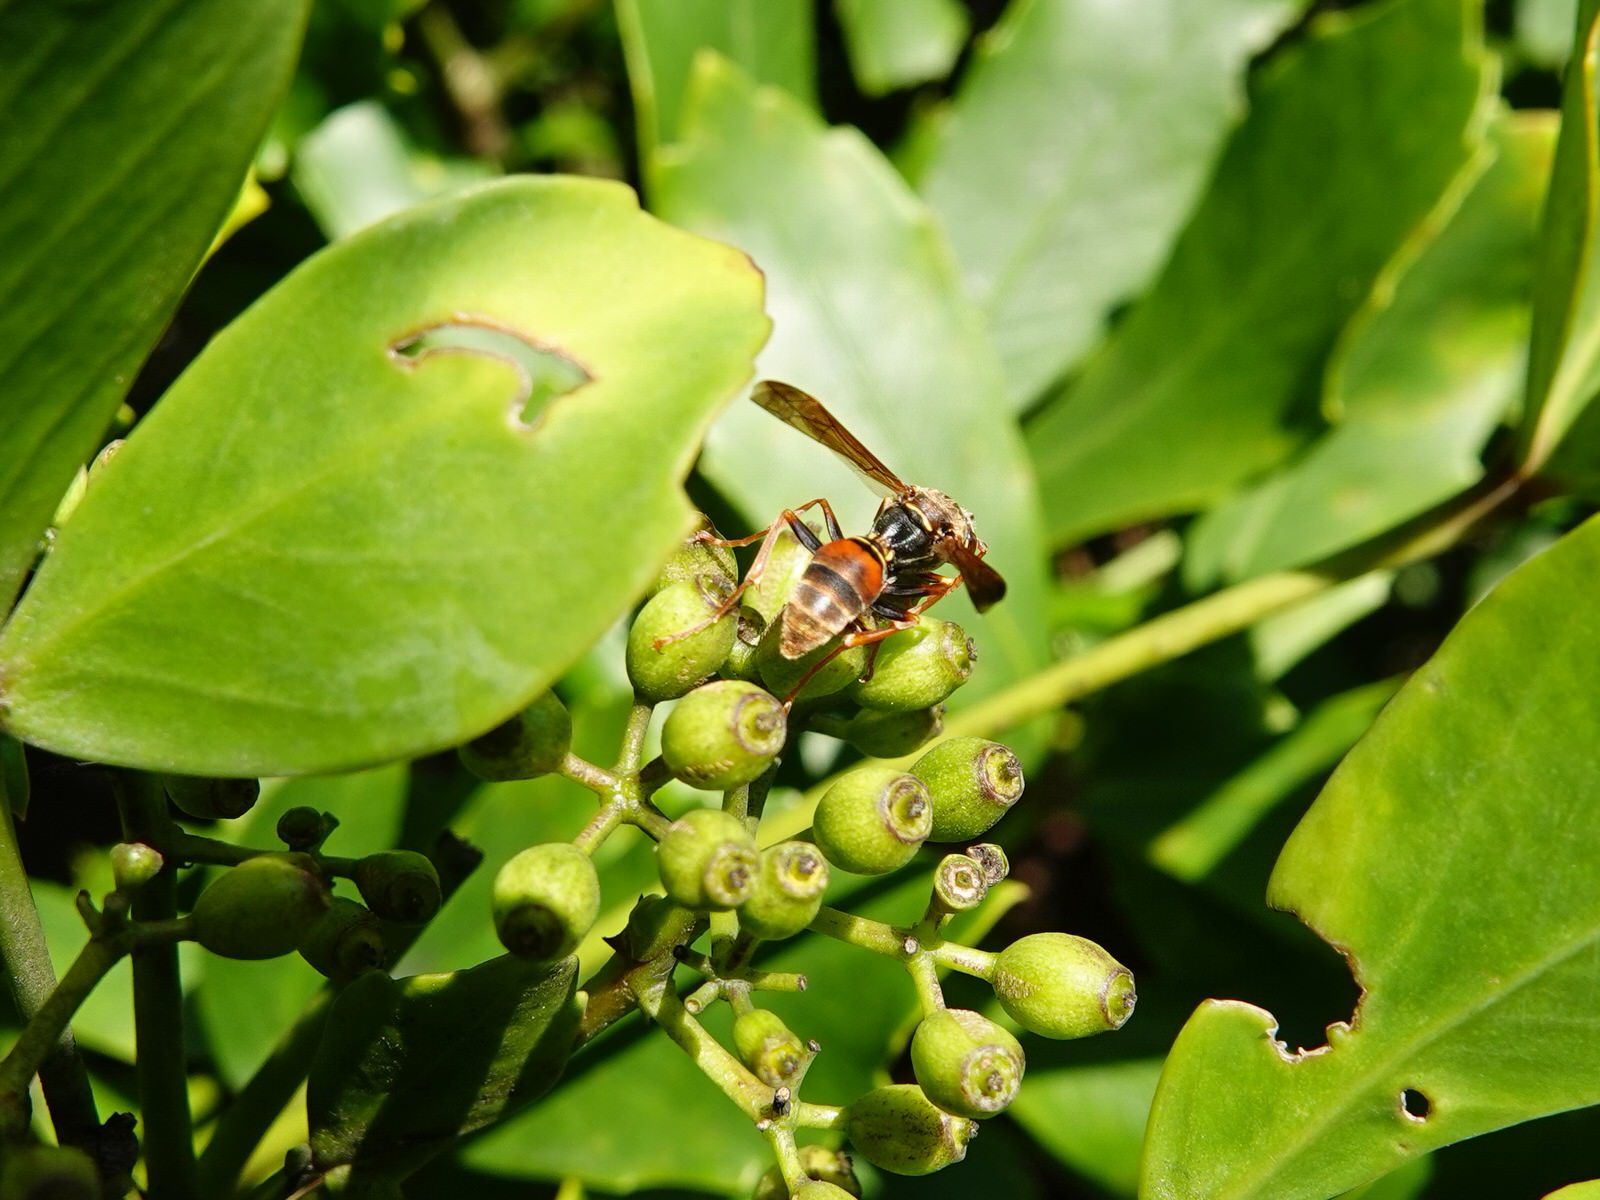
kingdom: Animalia
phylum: Arthropoda
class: Insecta
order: Hymenoptera
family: Eumenidae
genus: Polistes
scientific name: Polistes humilis
